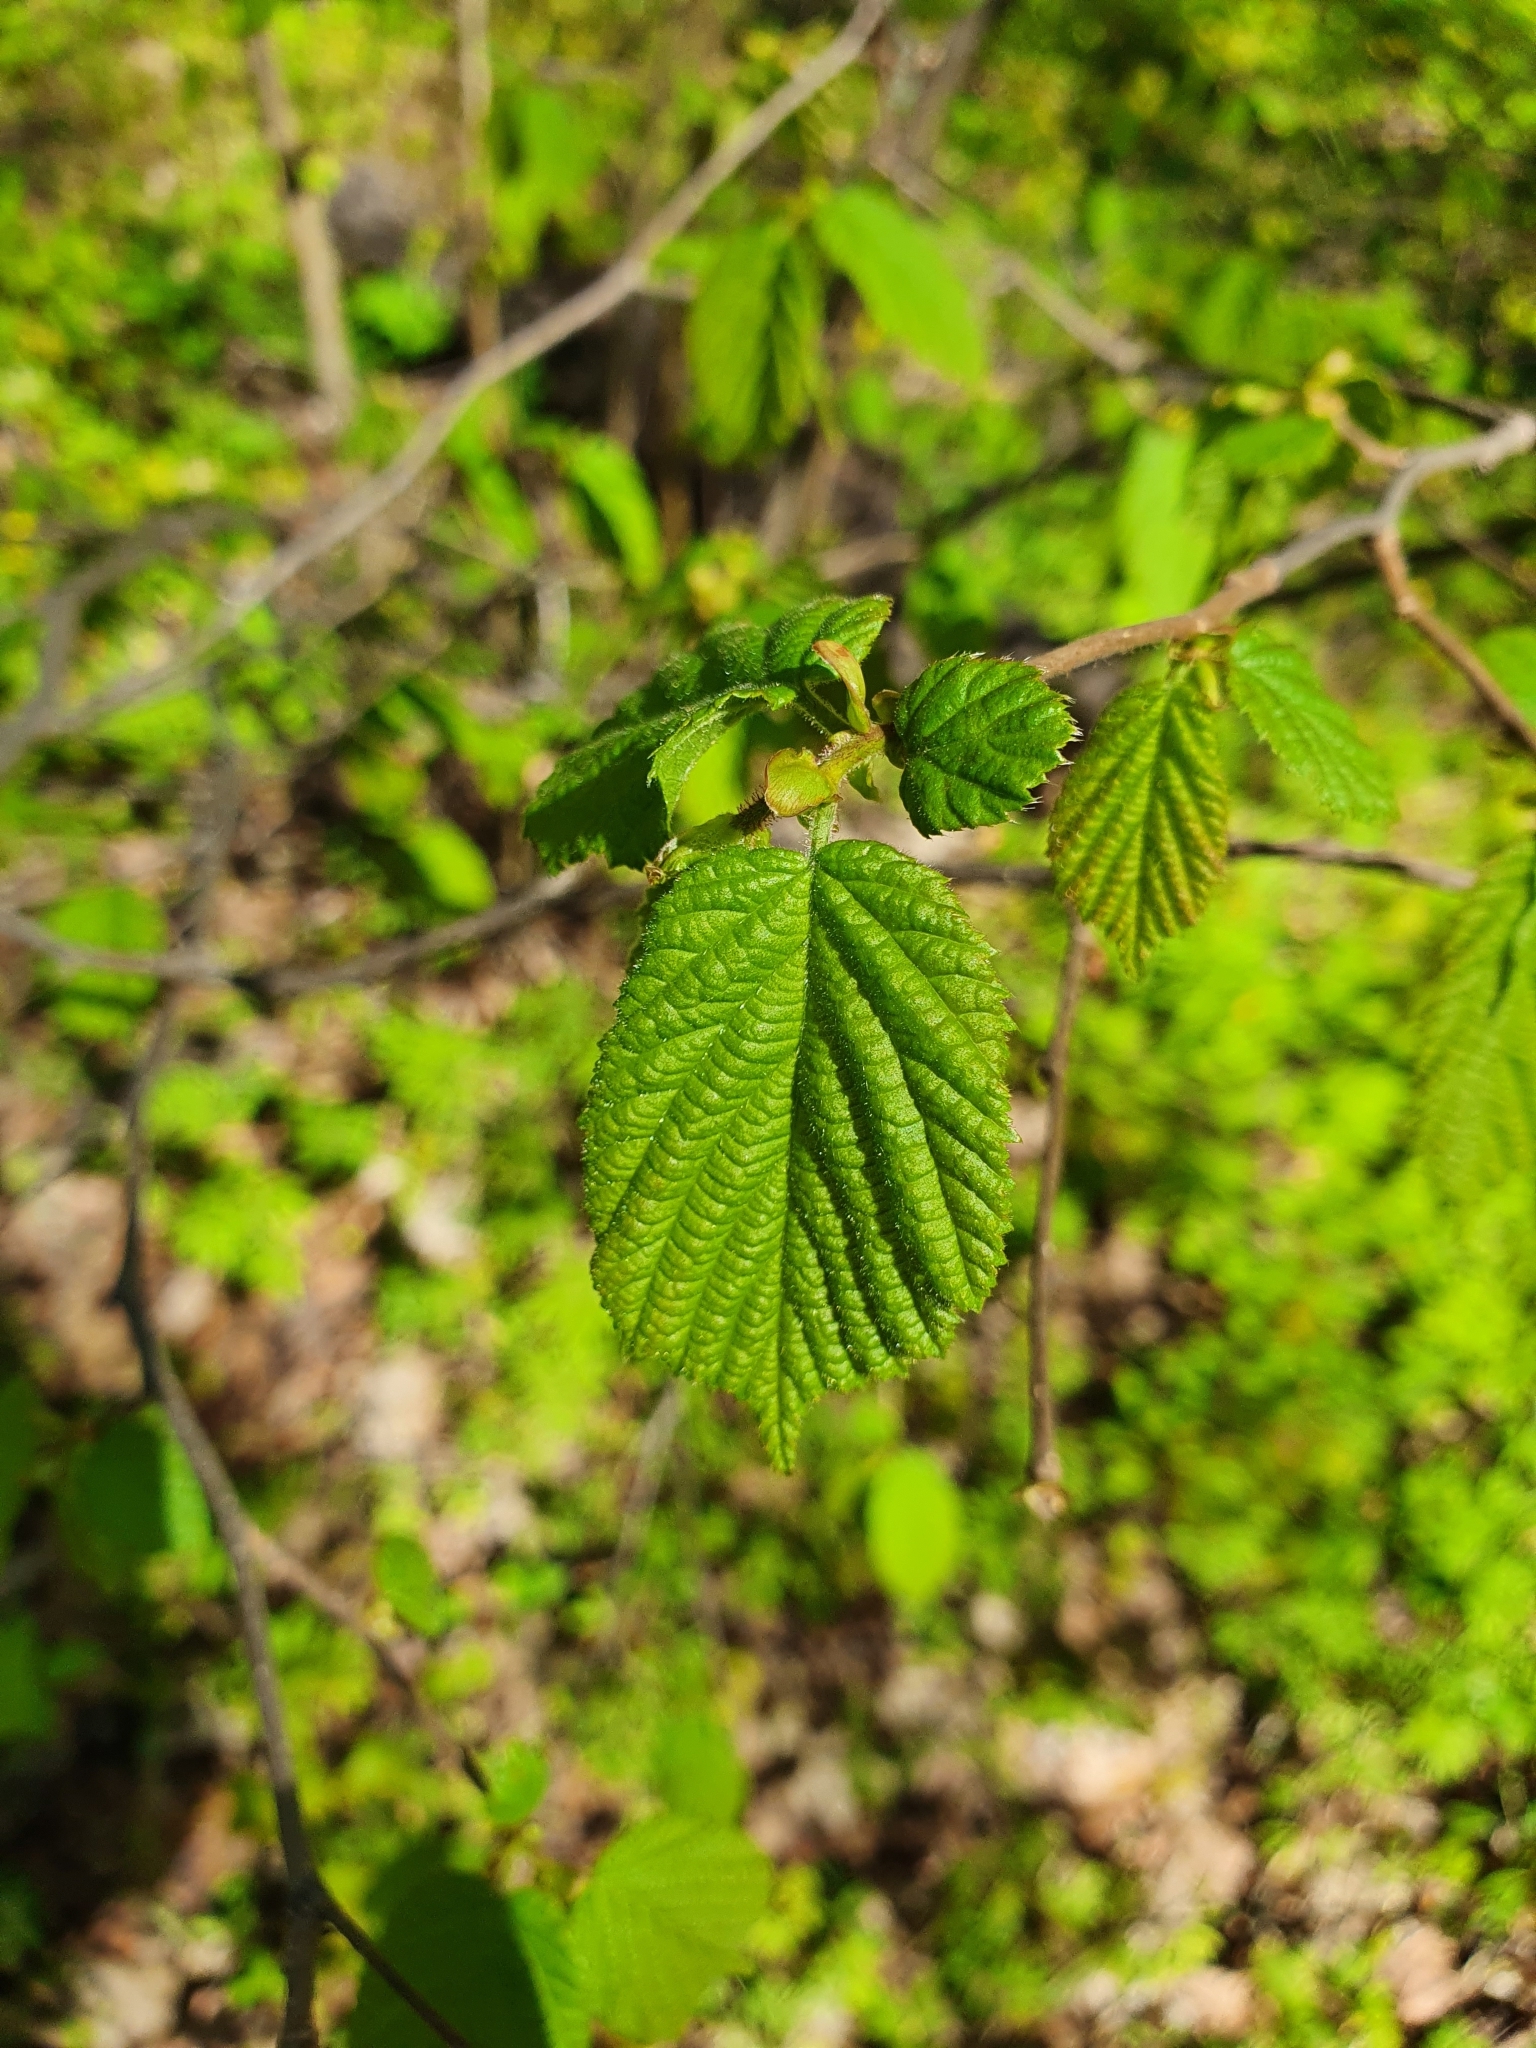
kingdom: Plantae
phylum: Tracheophyta
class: Magnoliopsida
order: Fagales
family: Betulaceae
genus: Corylus
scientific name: Corylus avellana
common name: European hazel
